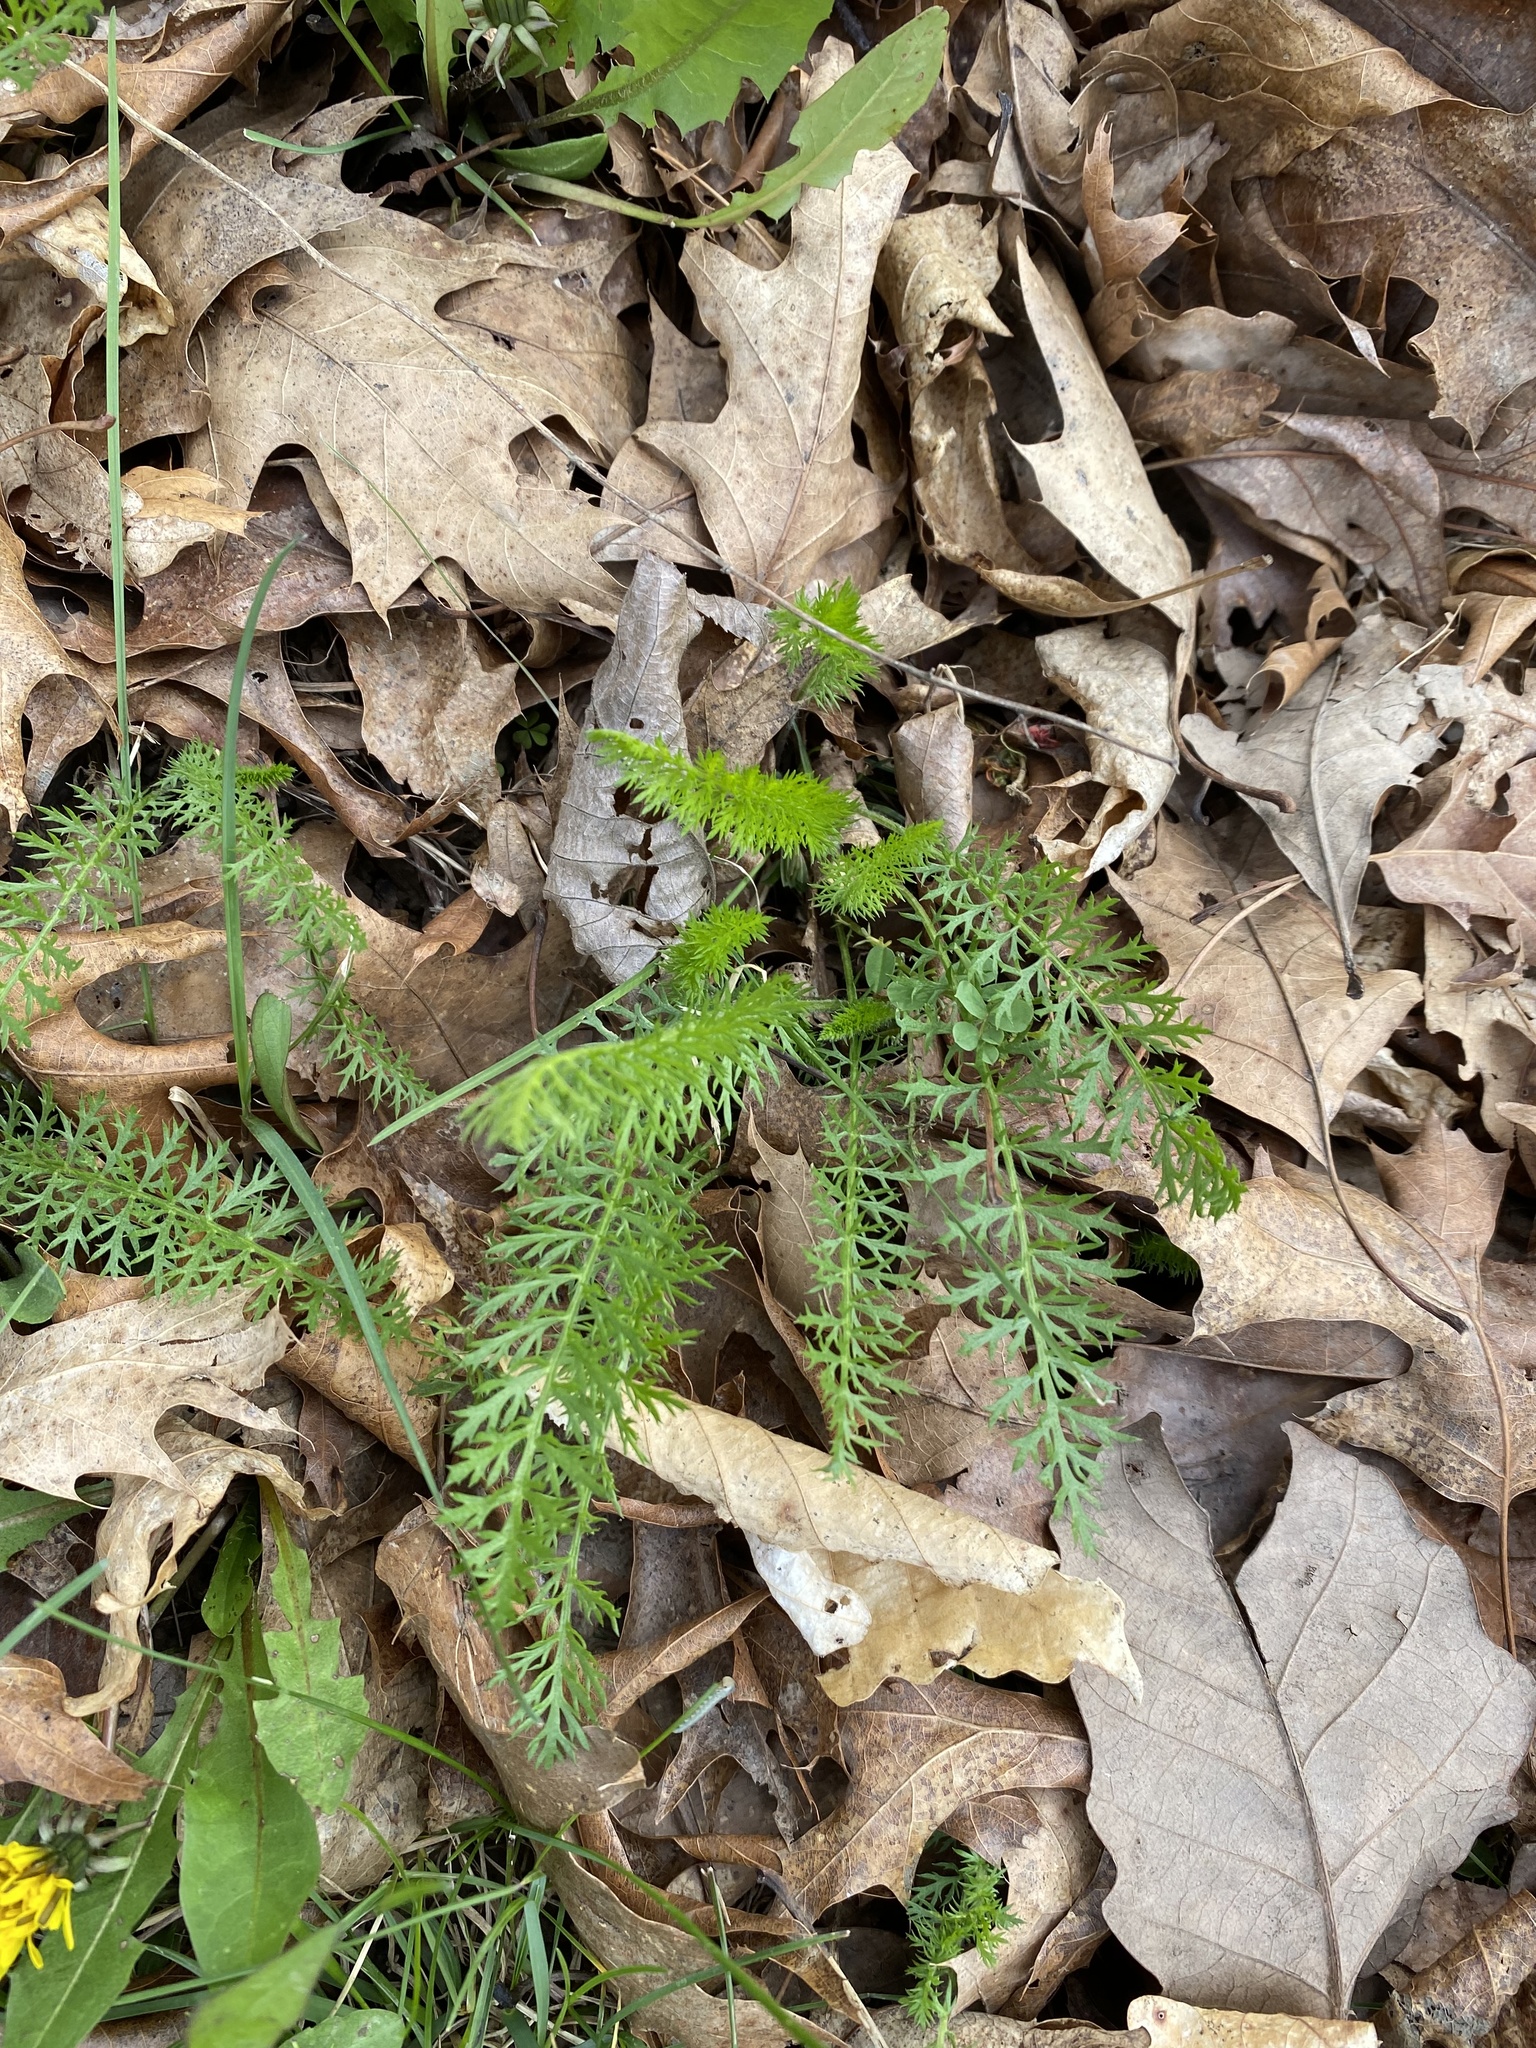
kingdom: Plantae
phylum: Tracheophyta
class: Magnoliopsida
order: Asterales
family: Asteraceae
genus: Achillea
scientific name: Achillea millefolium
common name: Yarrow
